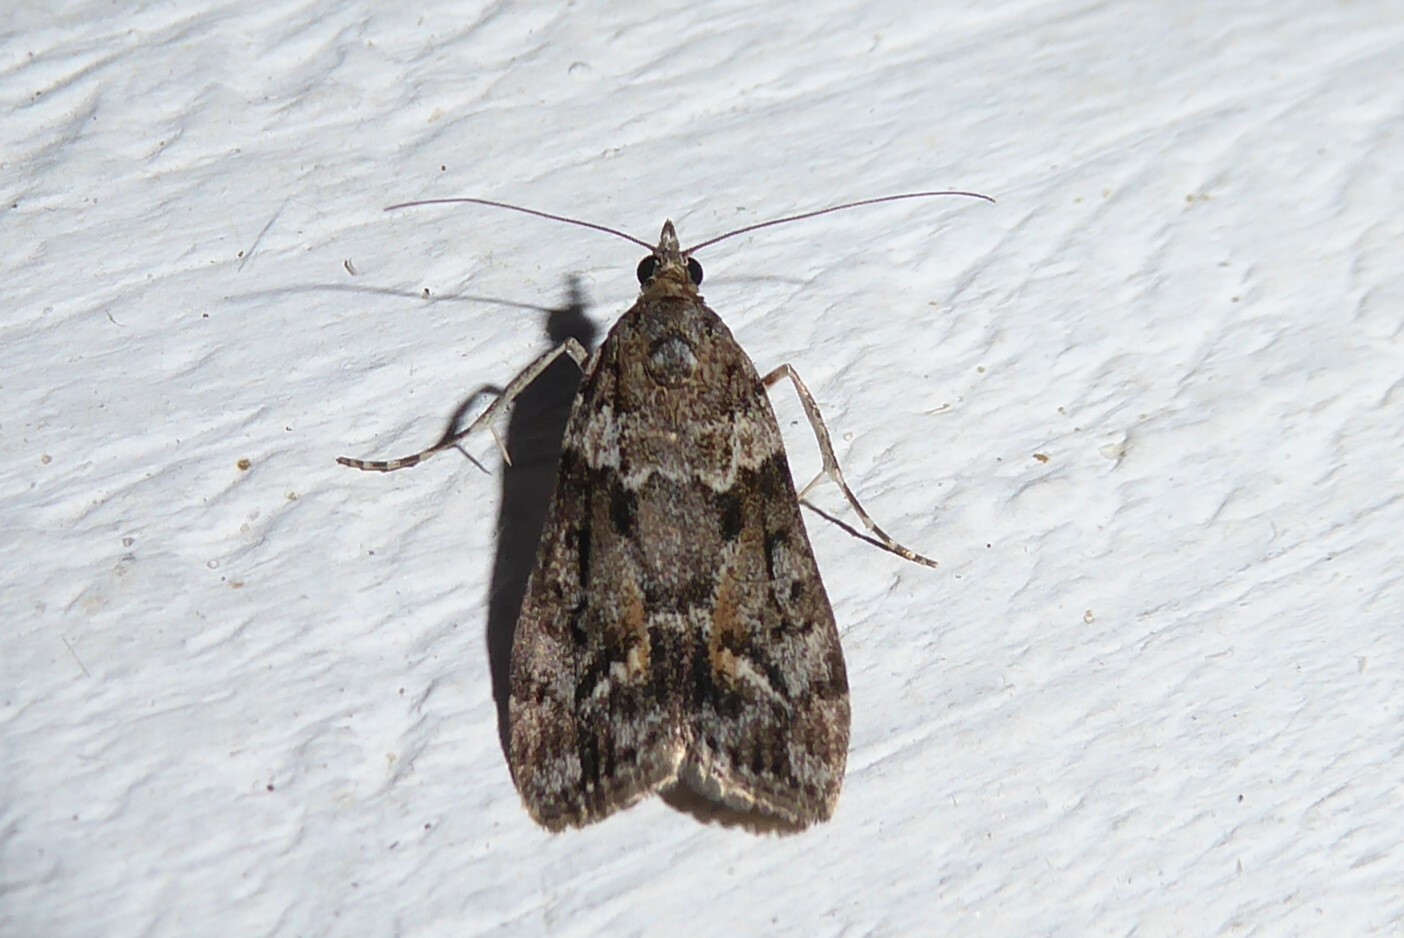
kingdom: Animalia
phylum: Arthropoda
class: Insecta
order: Lepidoptera
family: Crambidae
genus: Eudonia
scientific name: Eudonia submarginalis
